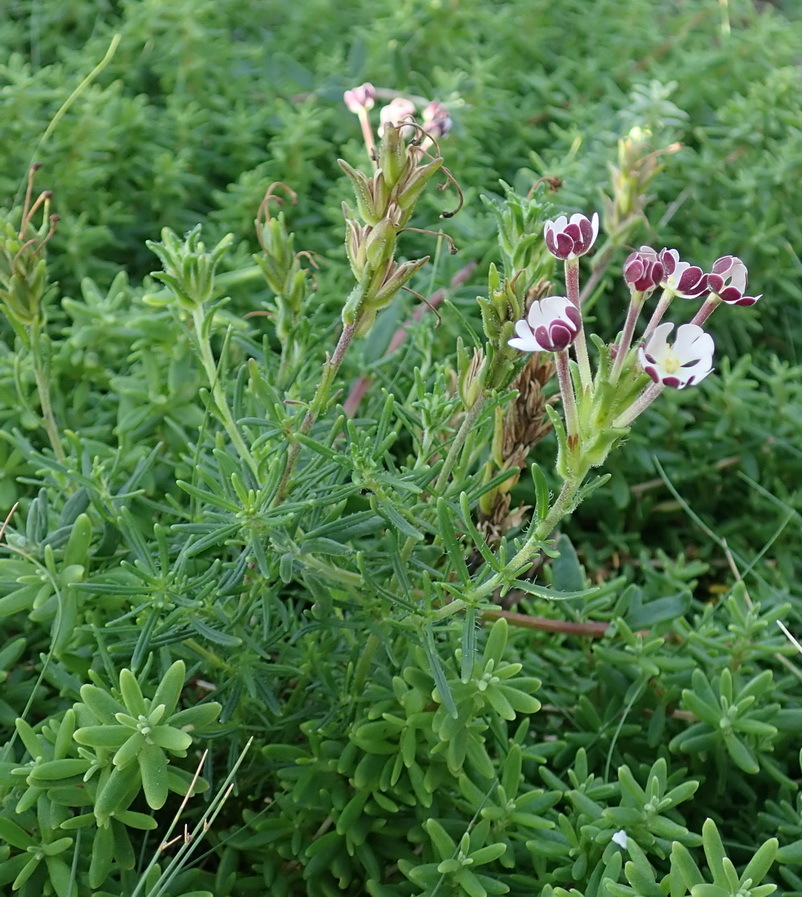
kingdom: Plantae
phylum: Tracheophyta
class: Magnoliopsida
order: Lamiales
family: Scrophulariaceae
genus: Zaluzianskya
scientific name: Zaluzianskya capensis
